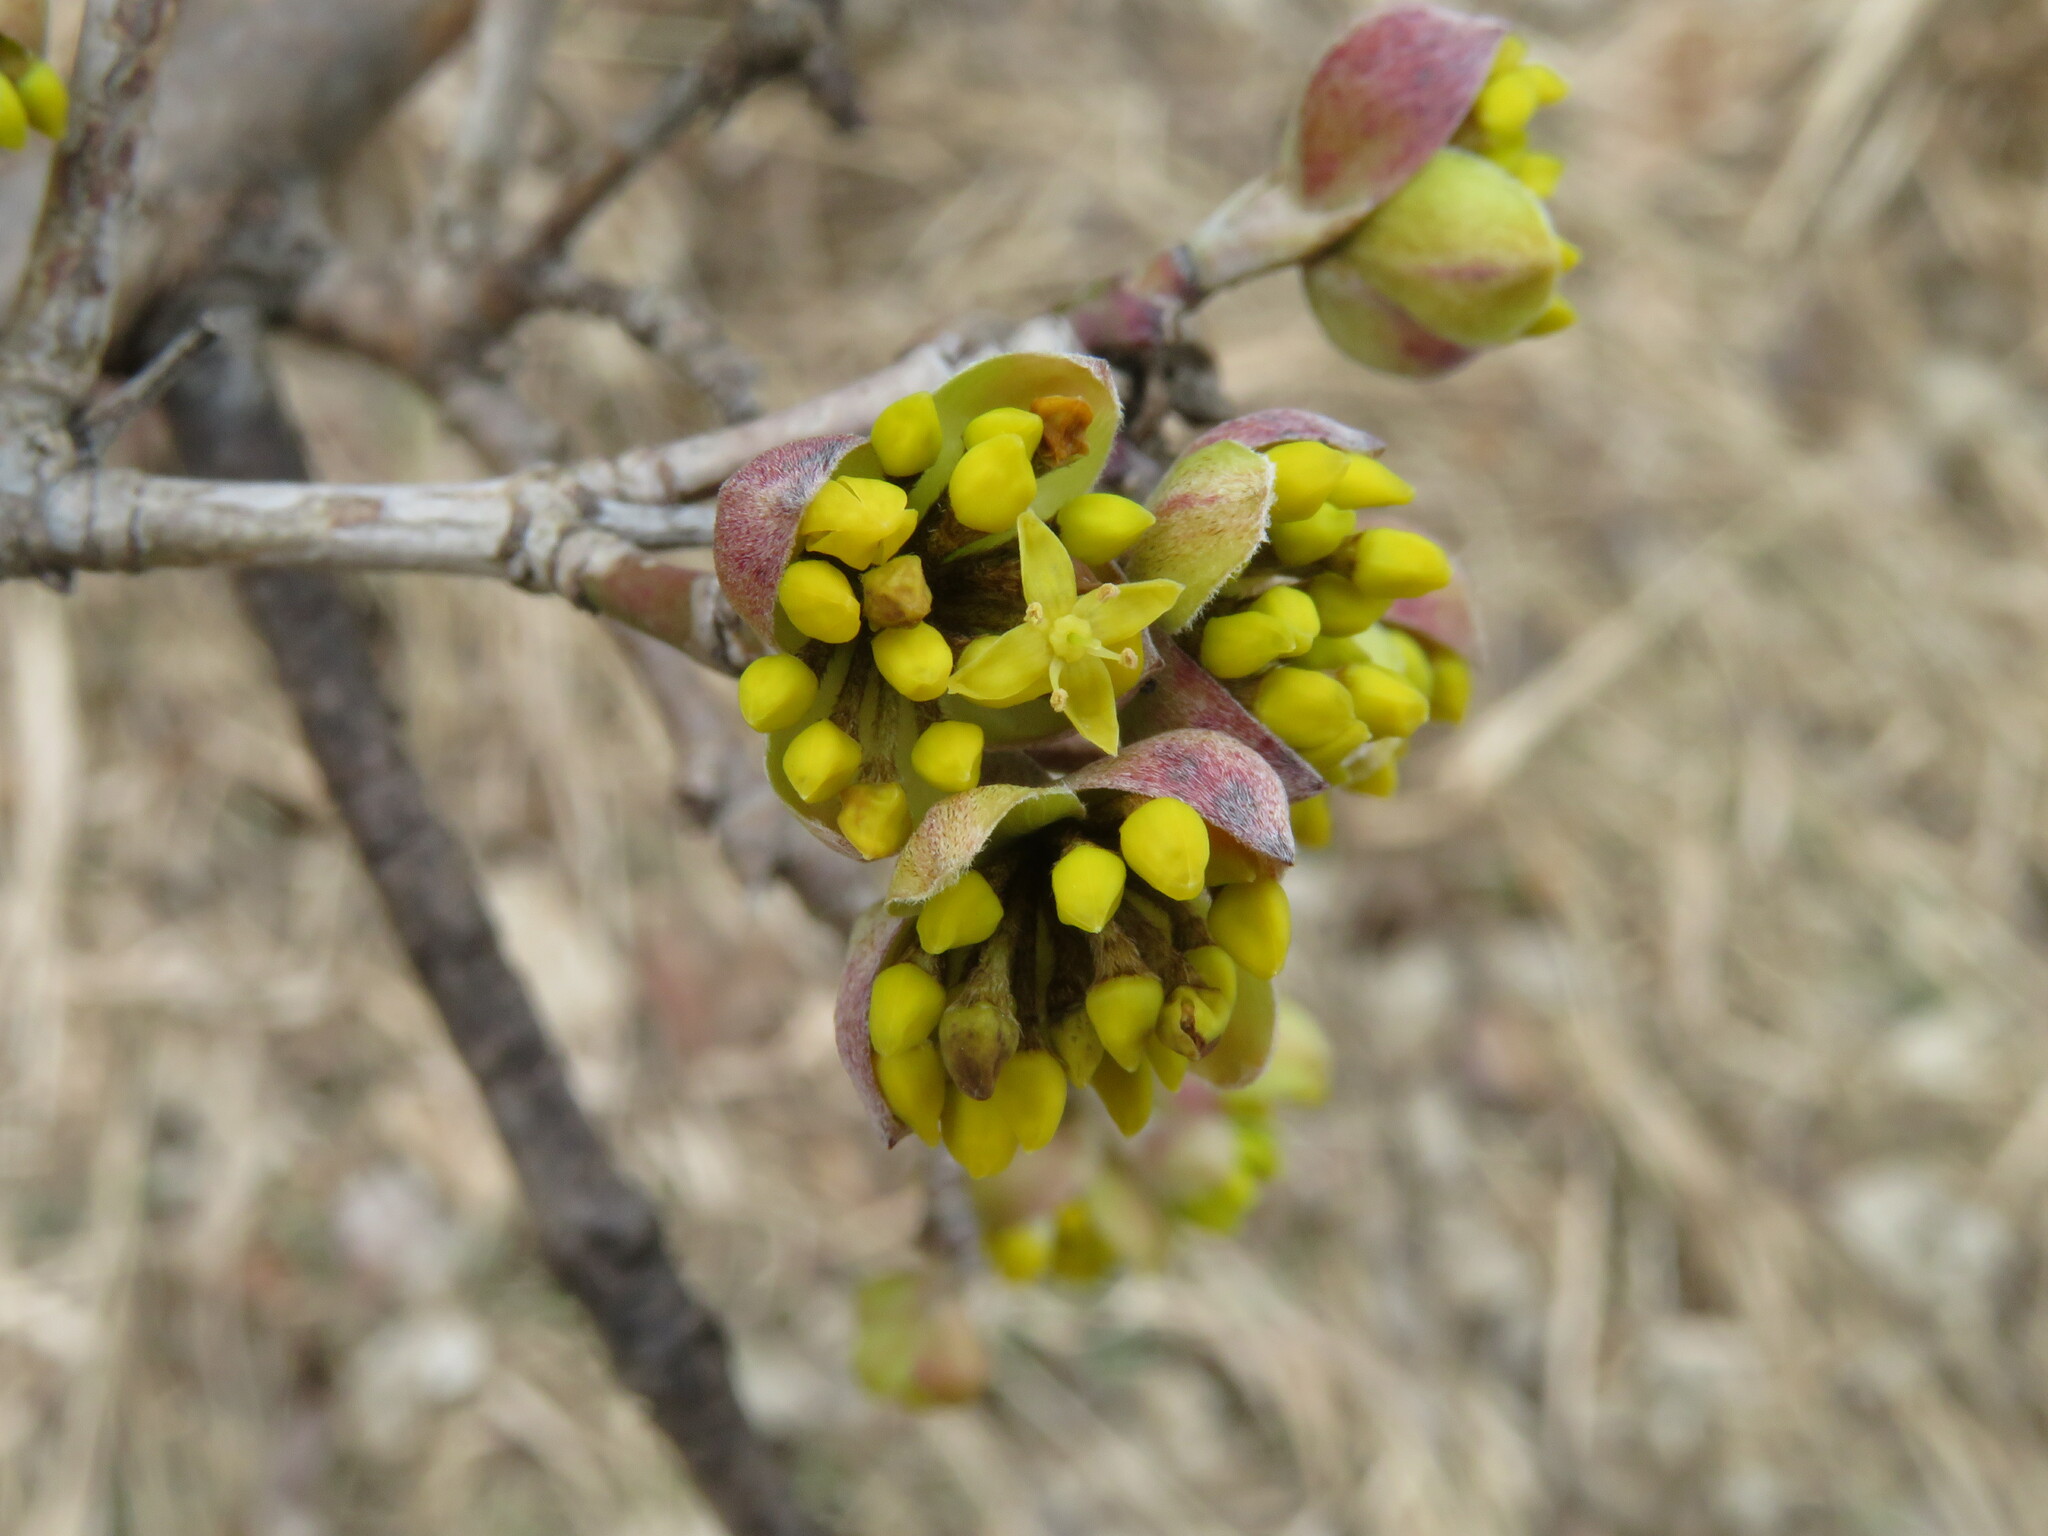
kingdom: Plantae
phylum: Tracheophyta
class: Magnoliopsida
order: Cornales
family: Cornaceae
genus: Cornus
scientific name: Cornus mas
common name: Cornelian-cherry
